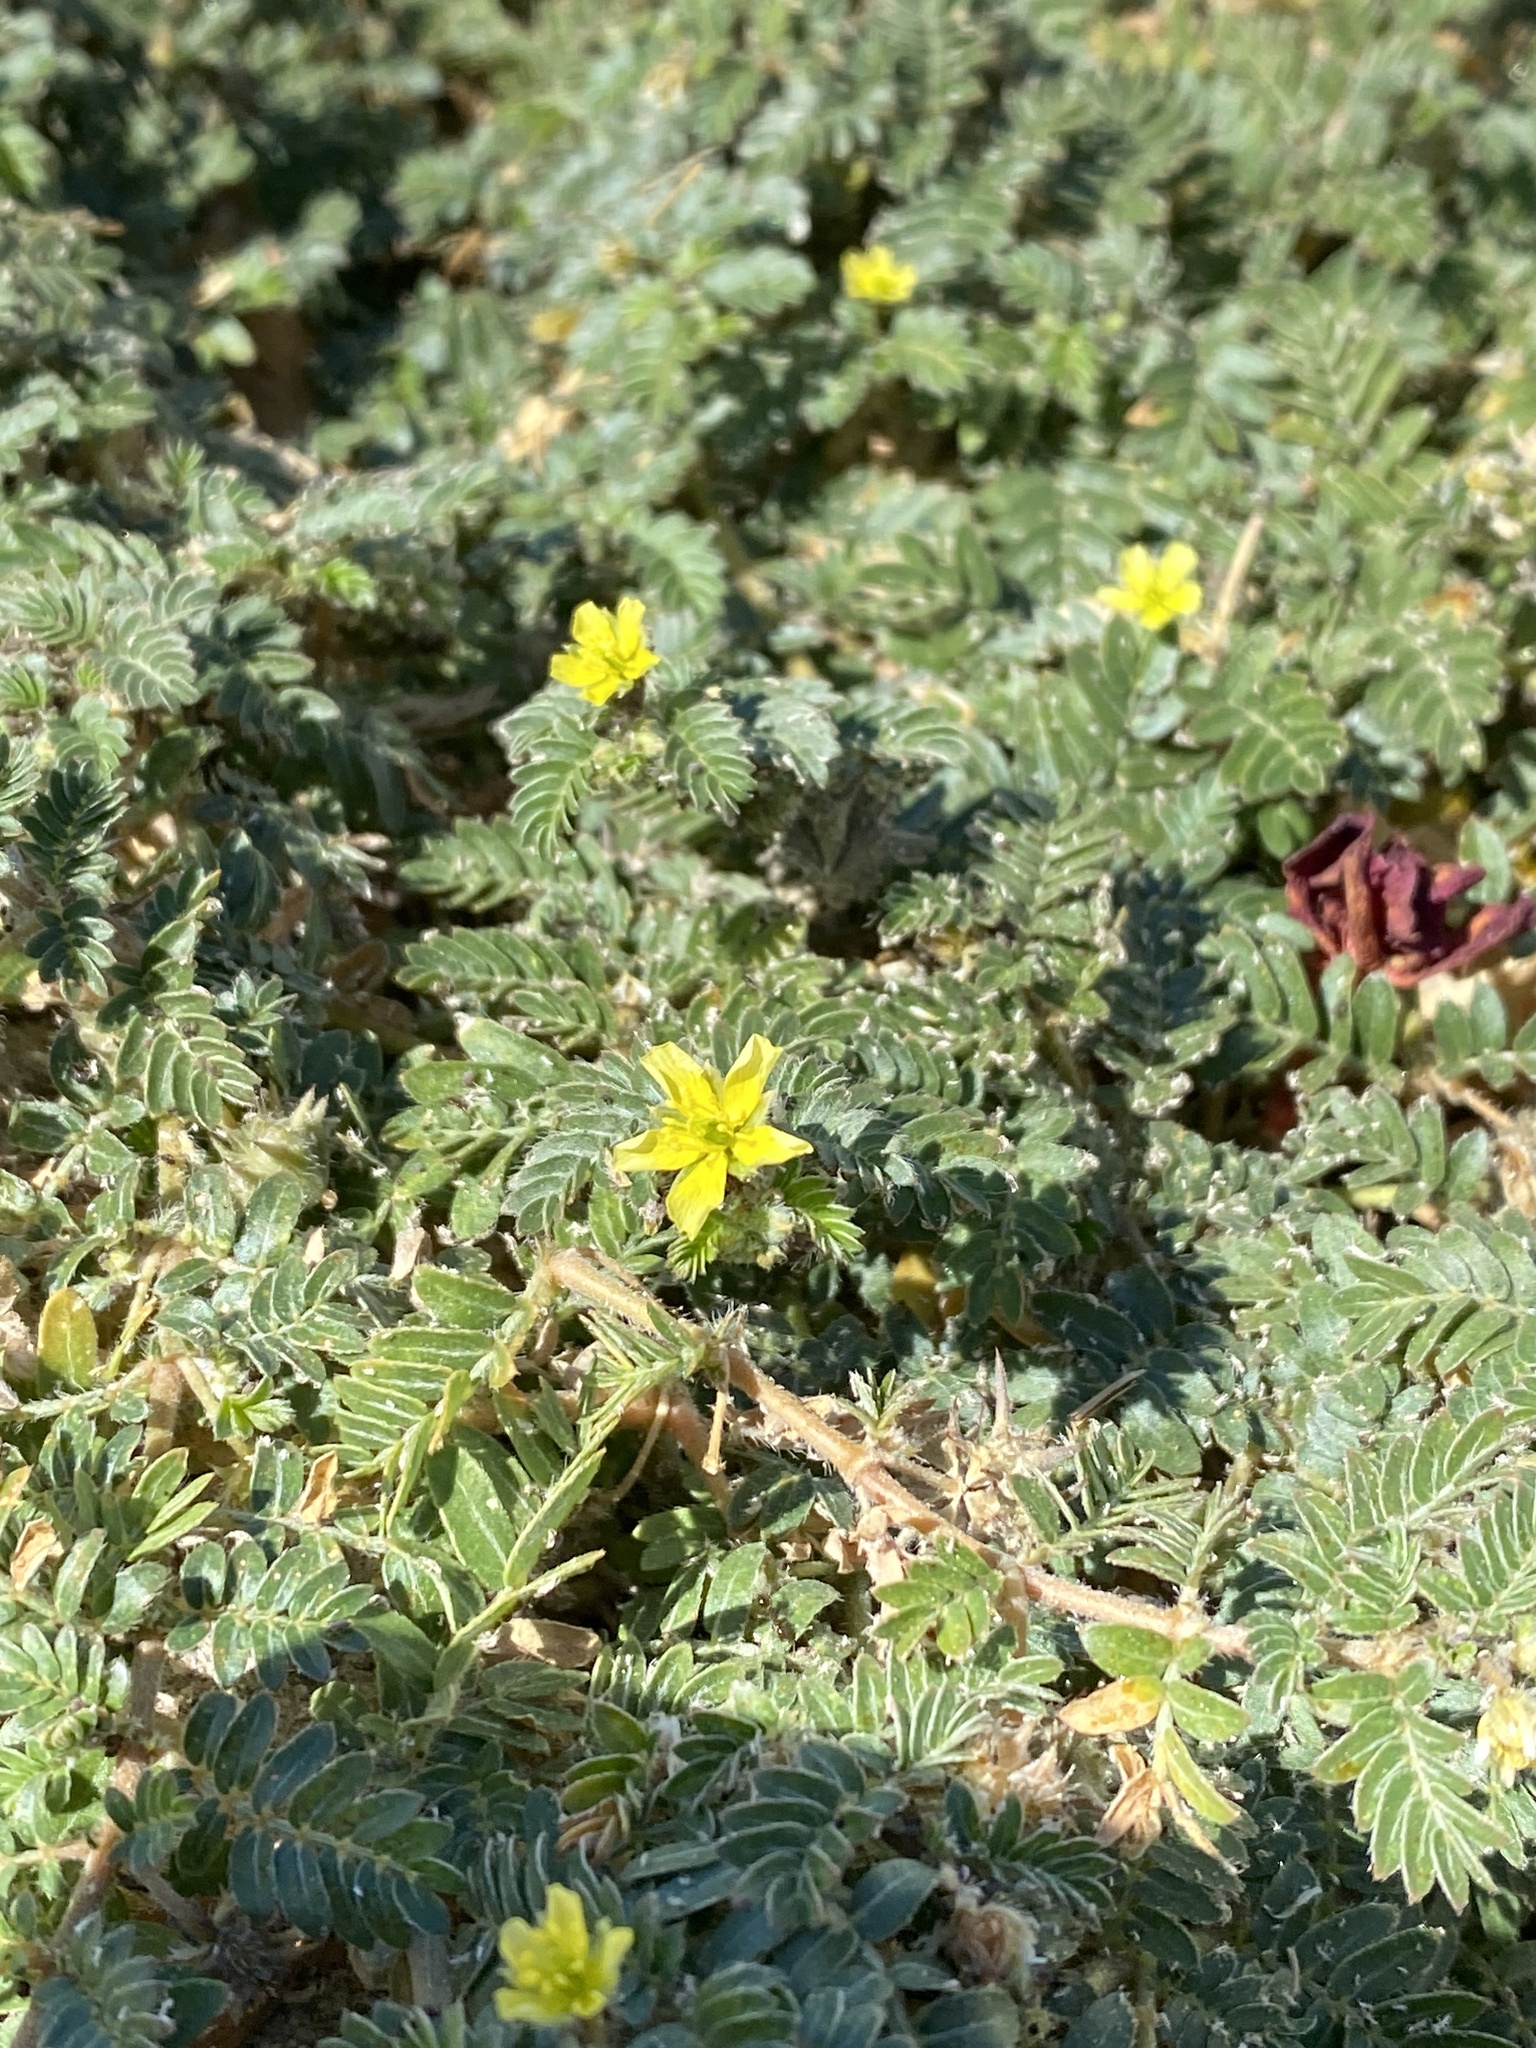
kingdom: Plantae
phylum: Tracheophyta
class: Magnoliopsida
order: Zygophyllales
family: Zygophyllaceae
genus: Tribulus
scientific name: Tribulus terrestris
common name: Puncturevine
